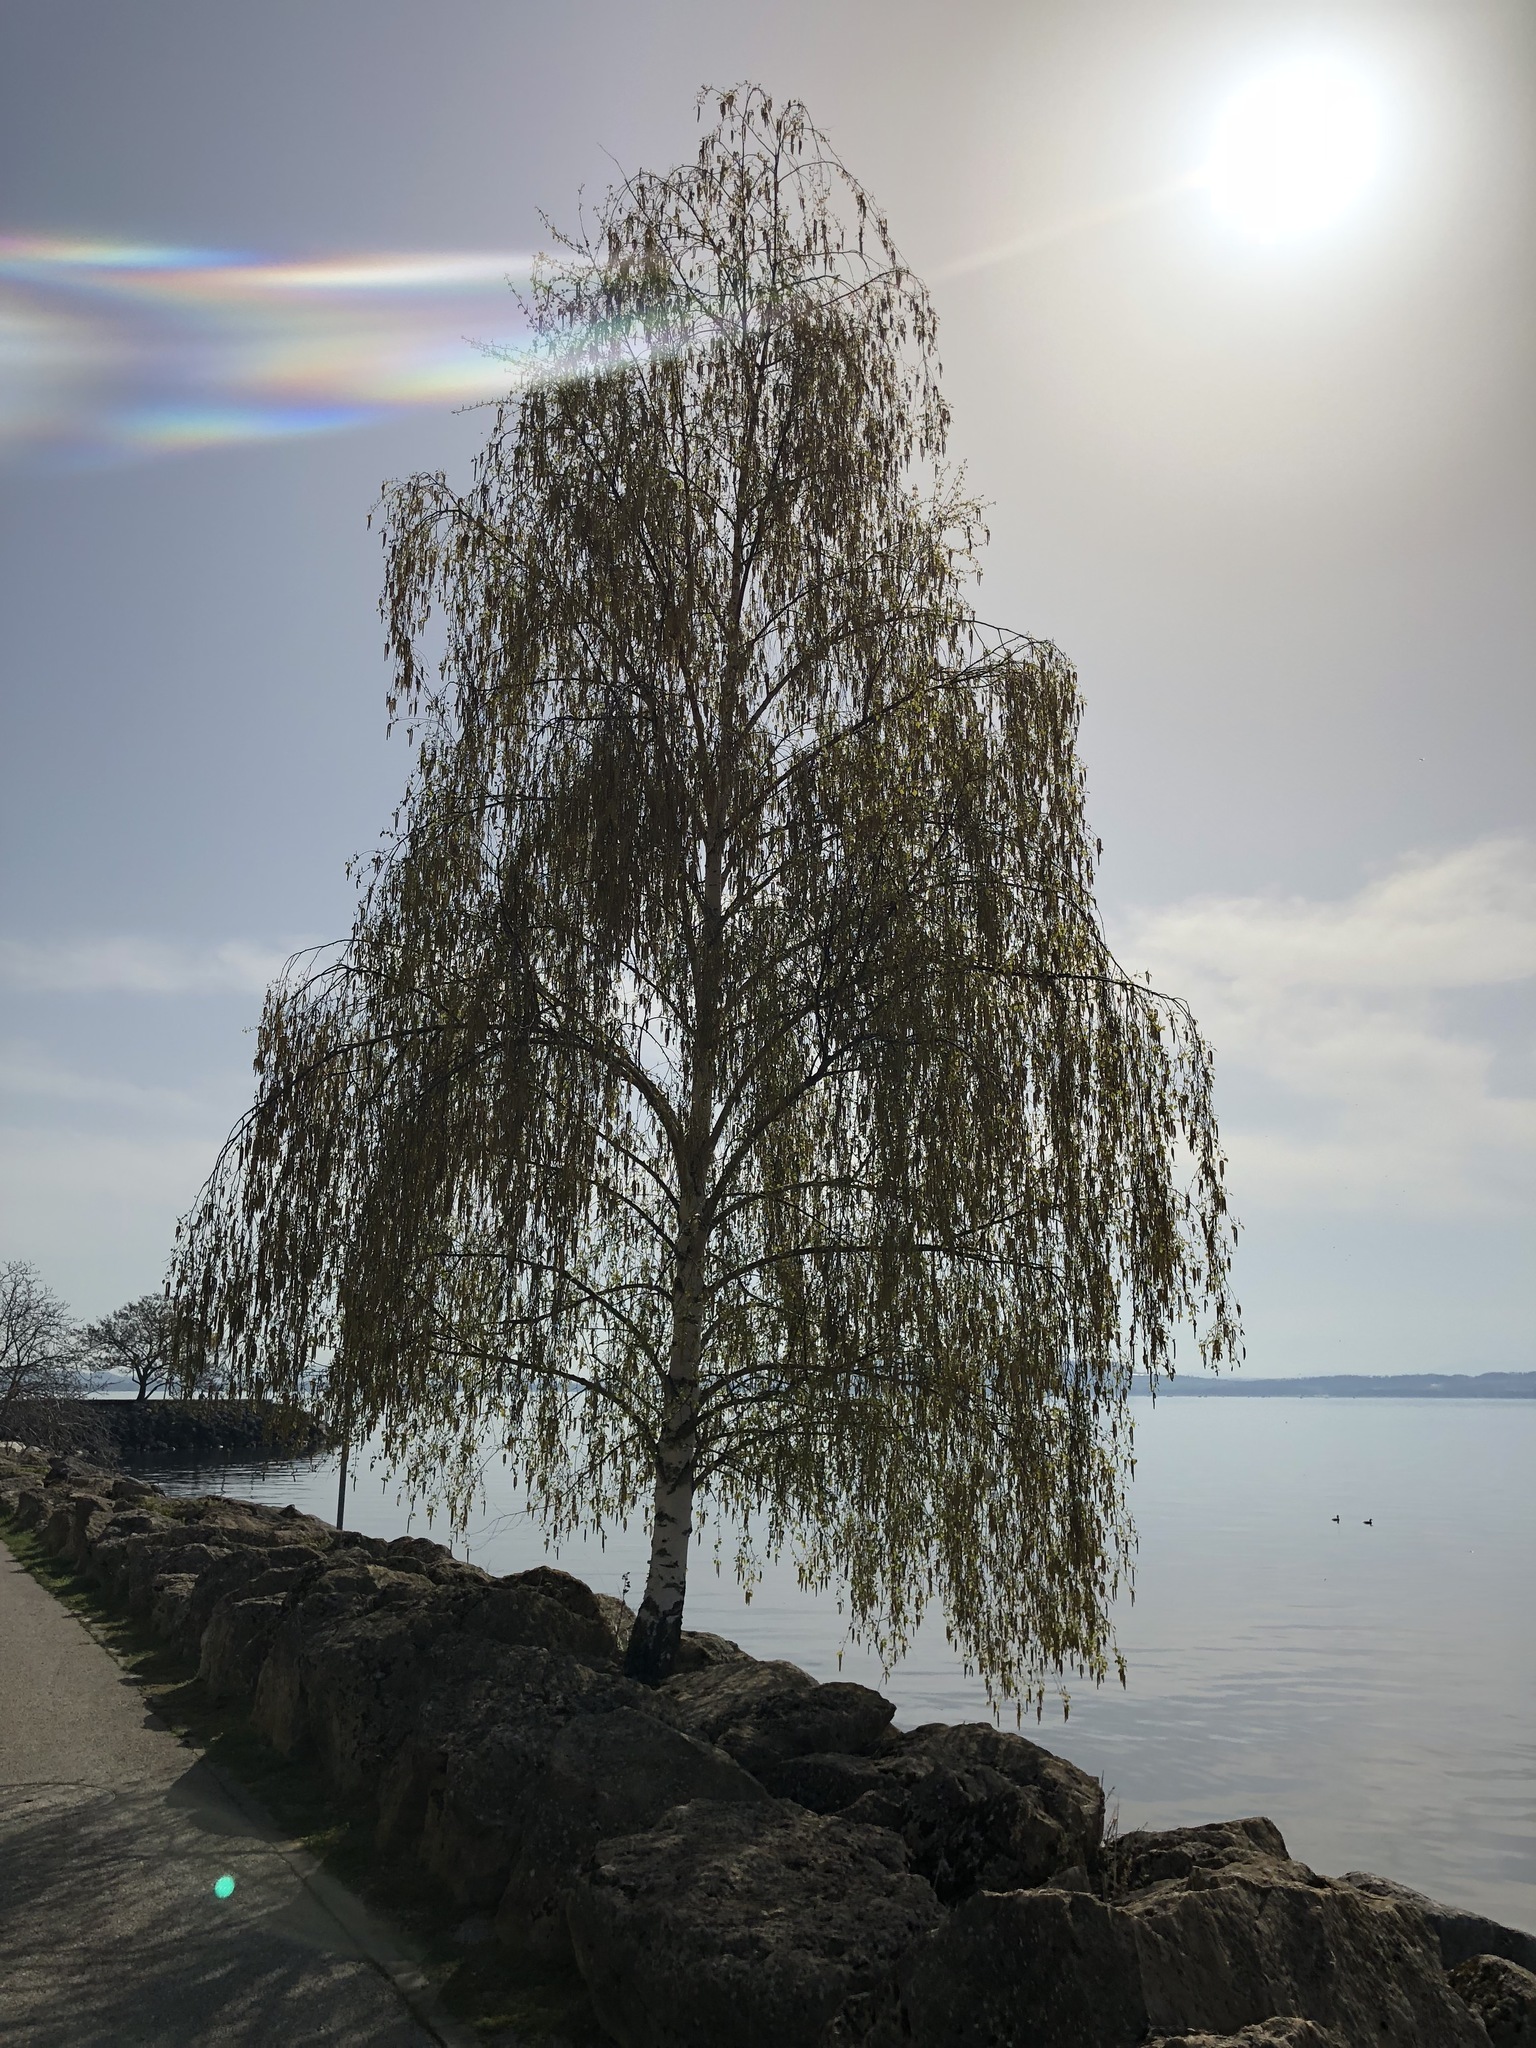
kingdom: Plantae
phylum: Tracheophyta
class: Magnoliopsida
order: Fagales
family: Betulaceae
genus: Betula
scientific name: Betula pendula
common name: Silver birch
